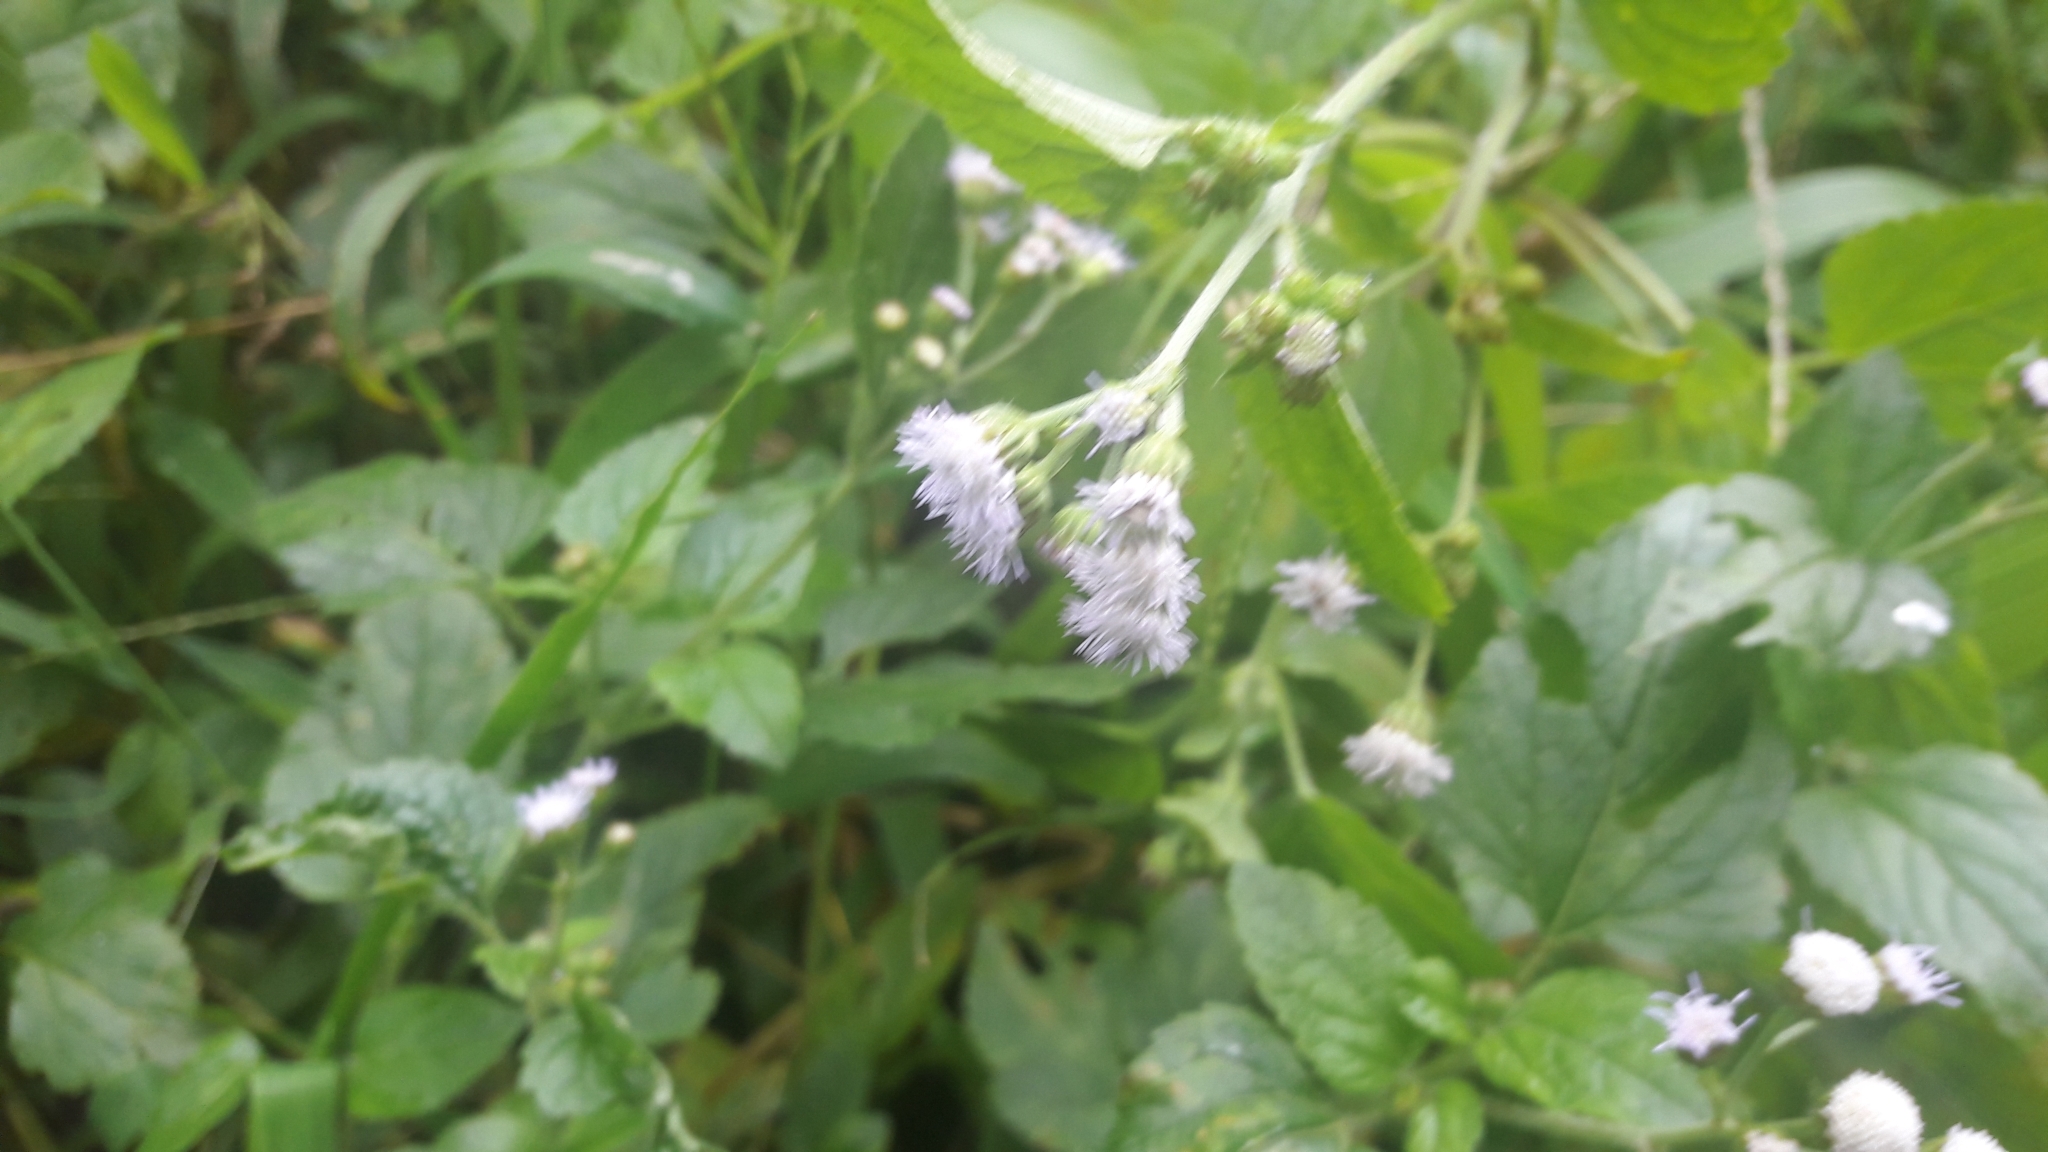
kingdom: Plantae
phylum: Tracheophyta
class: Magnoliopsida
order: Asterales
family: Asteraceae
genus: Ageratum
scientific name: Ageratum conyzoides
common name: Tropical whiteweed
